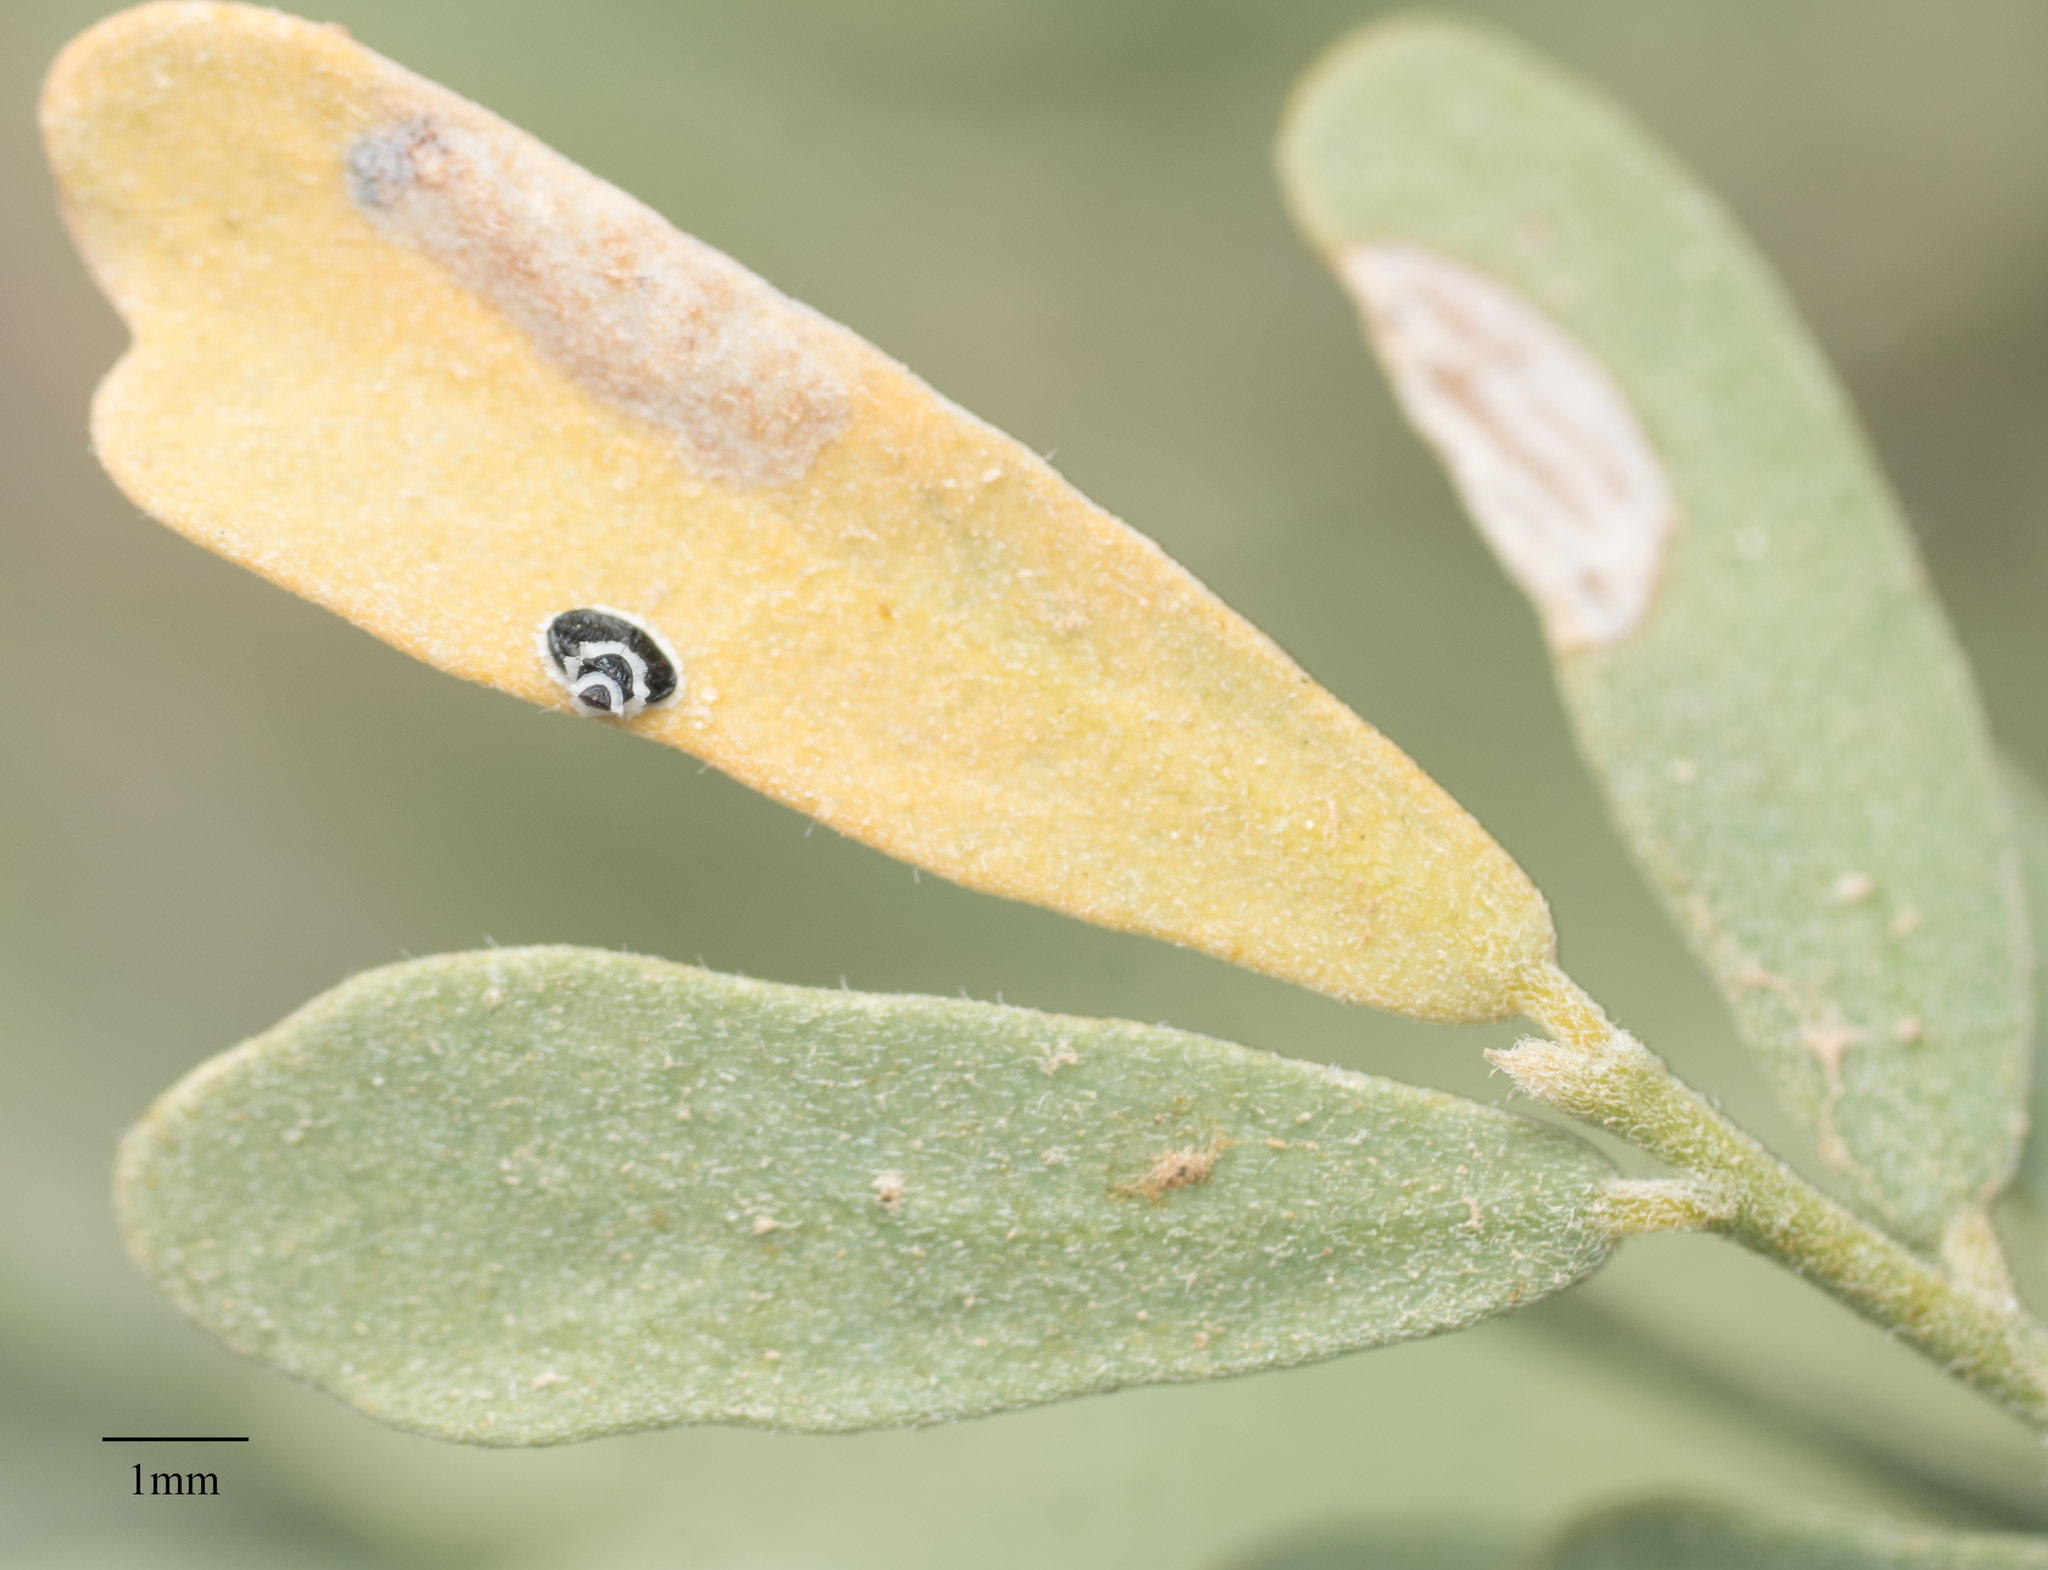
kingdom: Animalia
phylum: Arthropoda
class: Insecta
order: Hemiptera
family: Aleyrodidae
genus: Tetraleurodes
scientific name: Tetraleurodes acaciae
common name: Acacia whitefly
